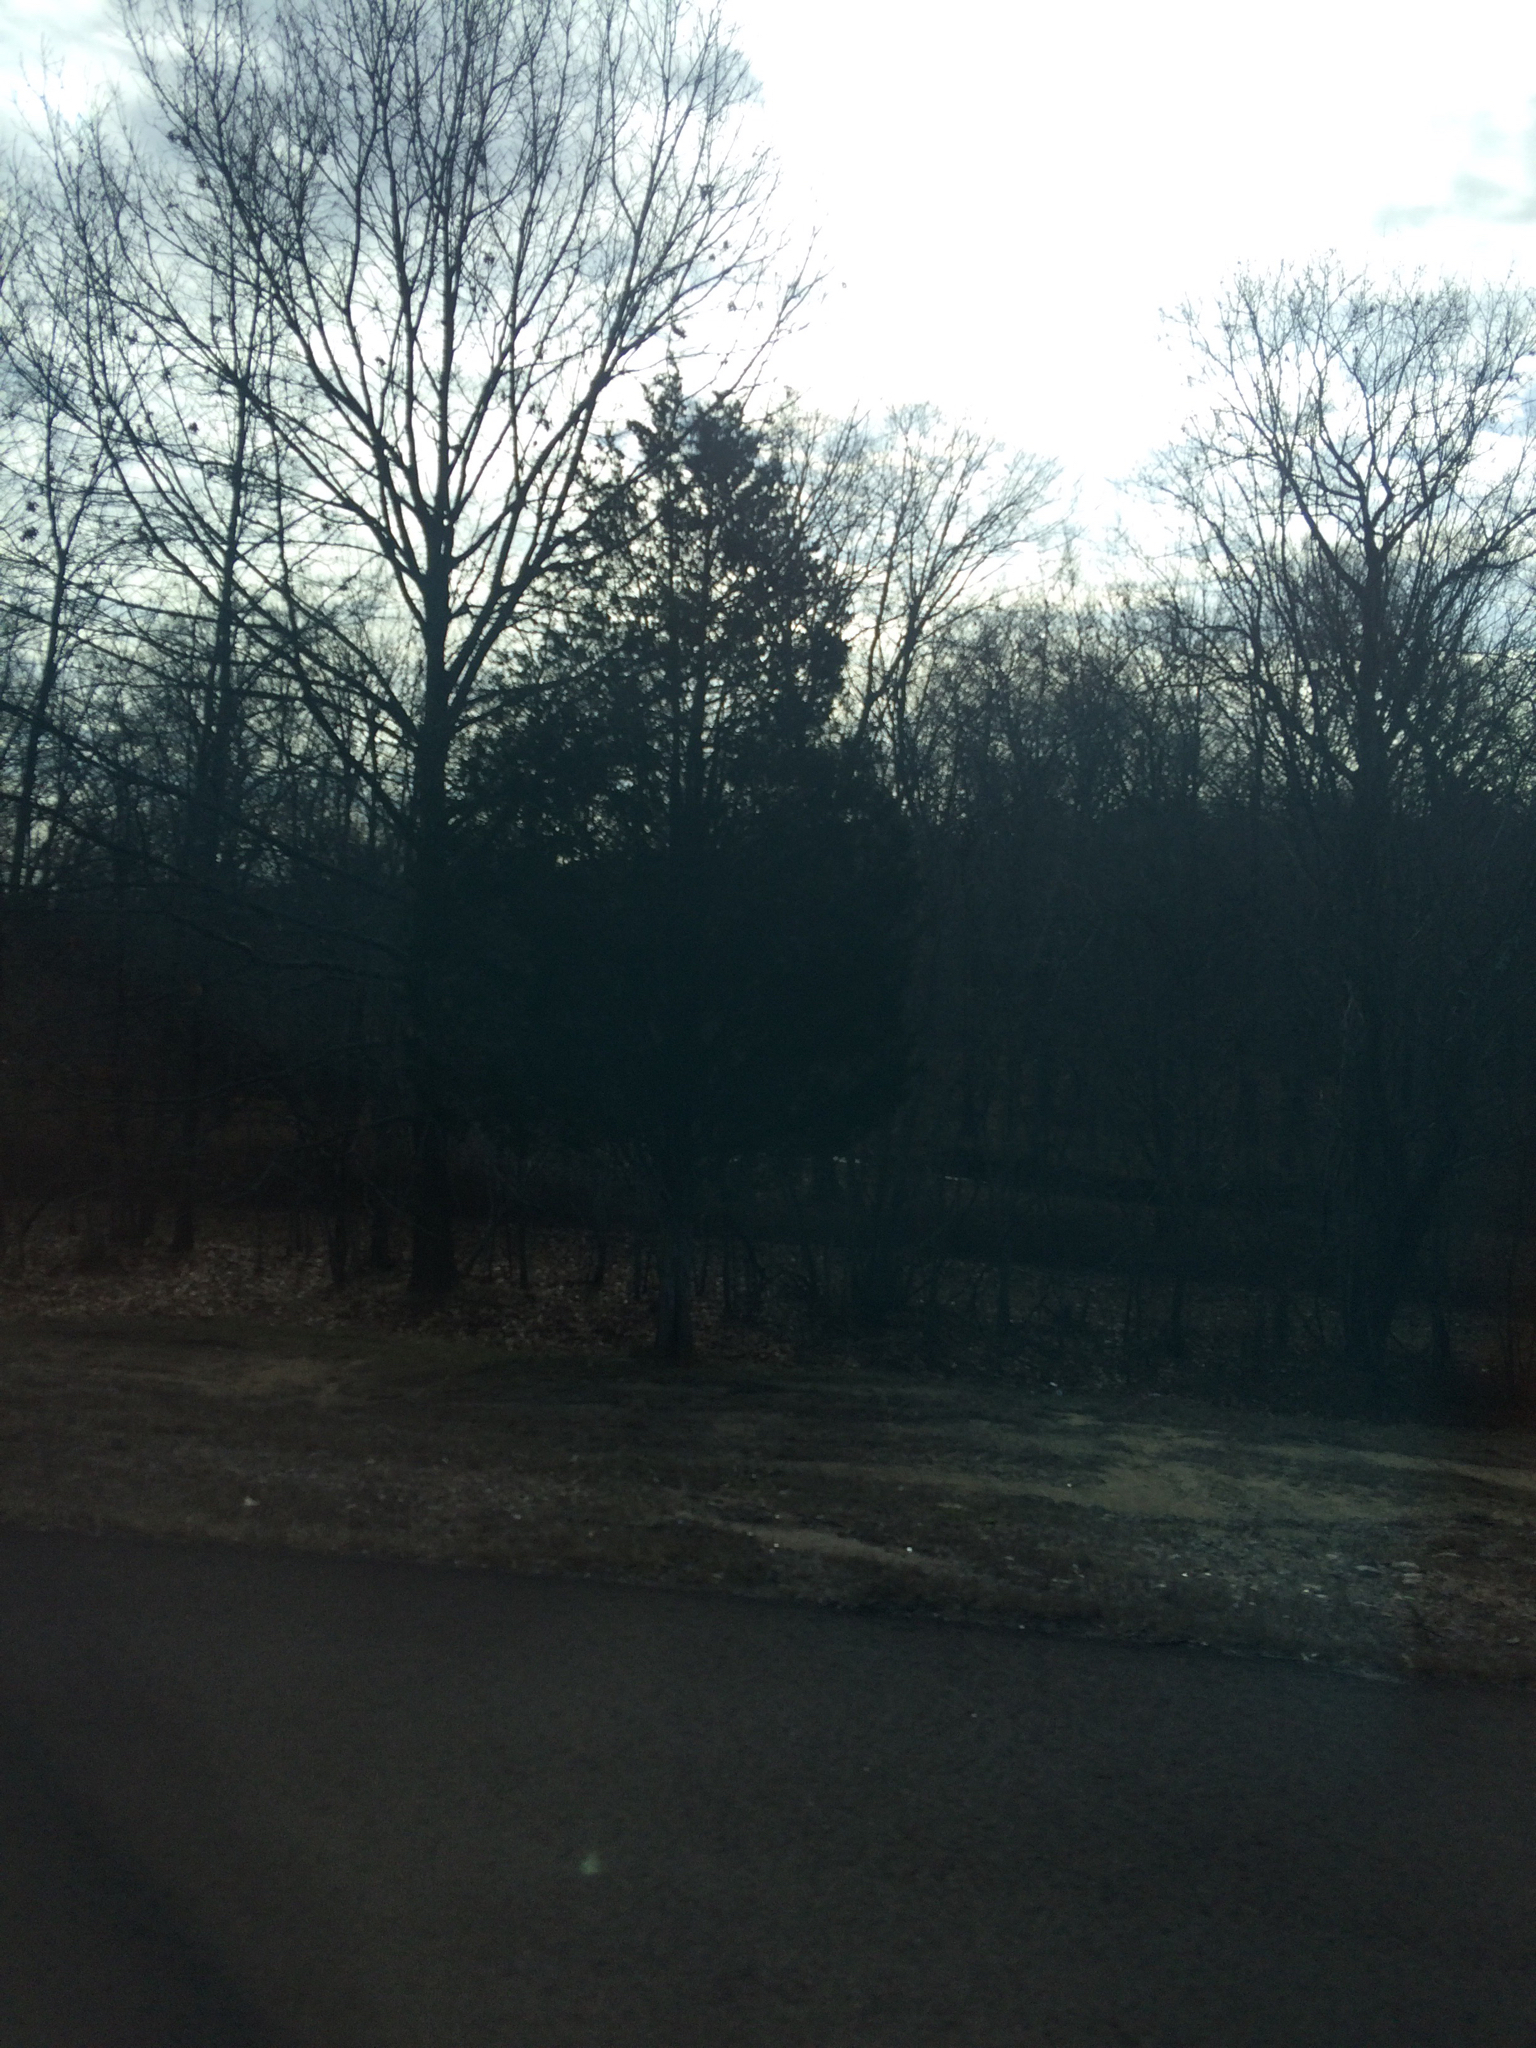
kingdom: Plantae
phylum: Tracheophyta
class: Pinopsida
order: Pinales
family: Cupressaceae
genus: Juniperus
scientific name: Juniperus virginiana
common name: Red juniper
